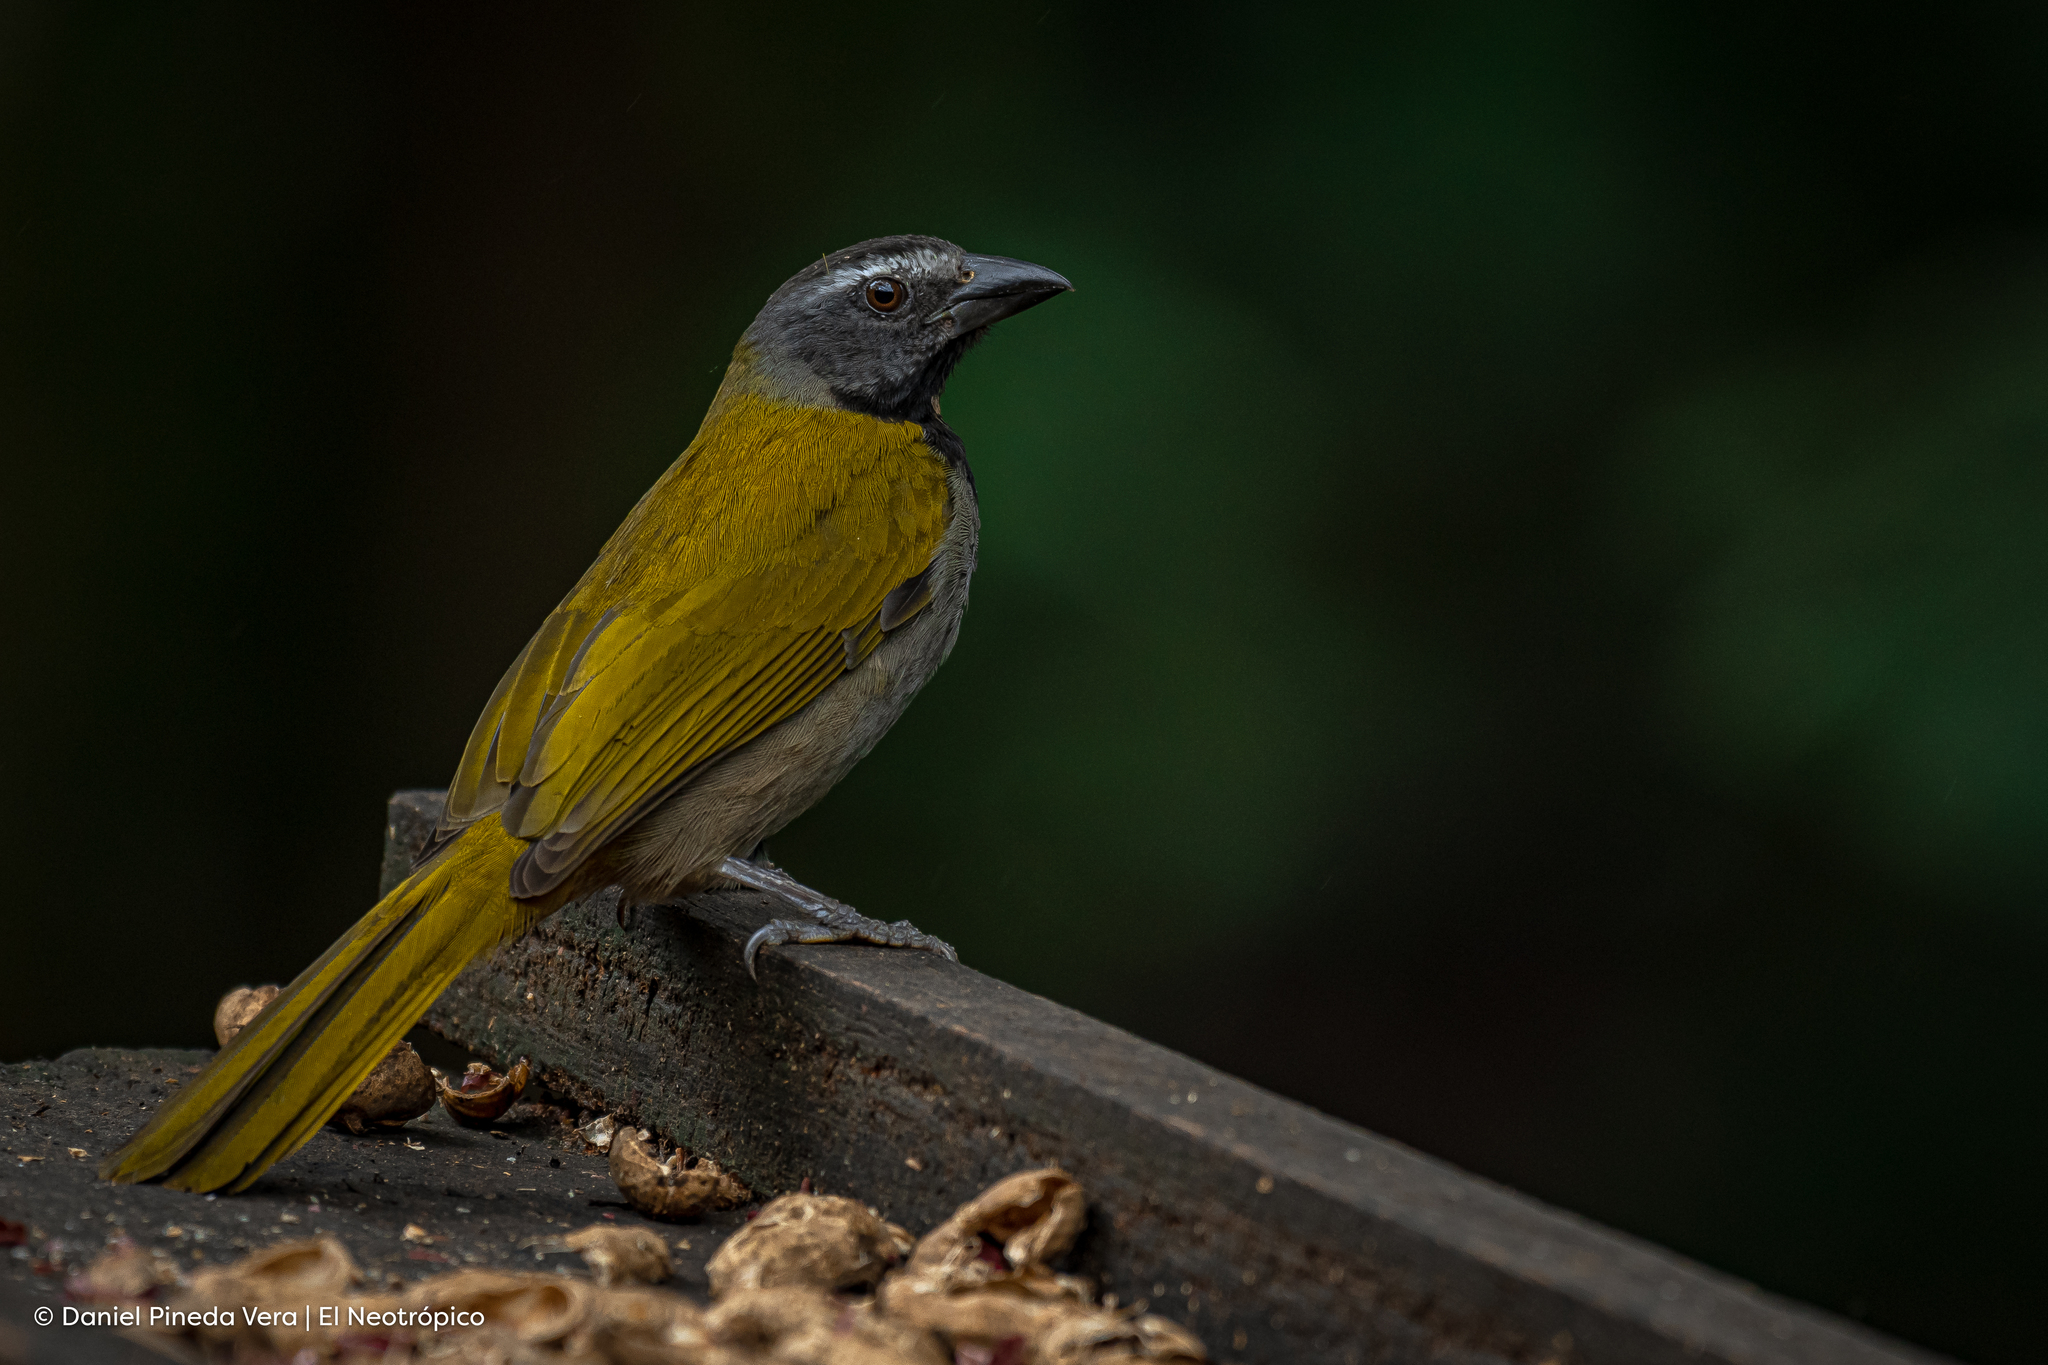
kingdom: Animalia
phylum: Chordata
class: Aves
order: Passeriformes
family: Thraupidae
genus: Saltator
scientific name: Saltator maximus
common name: Buff-throated saltator
